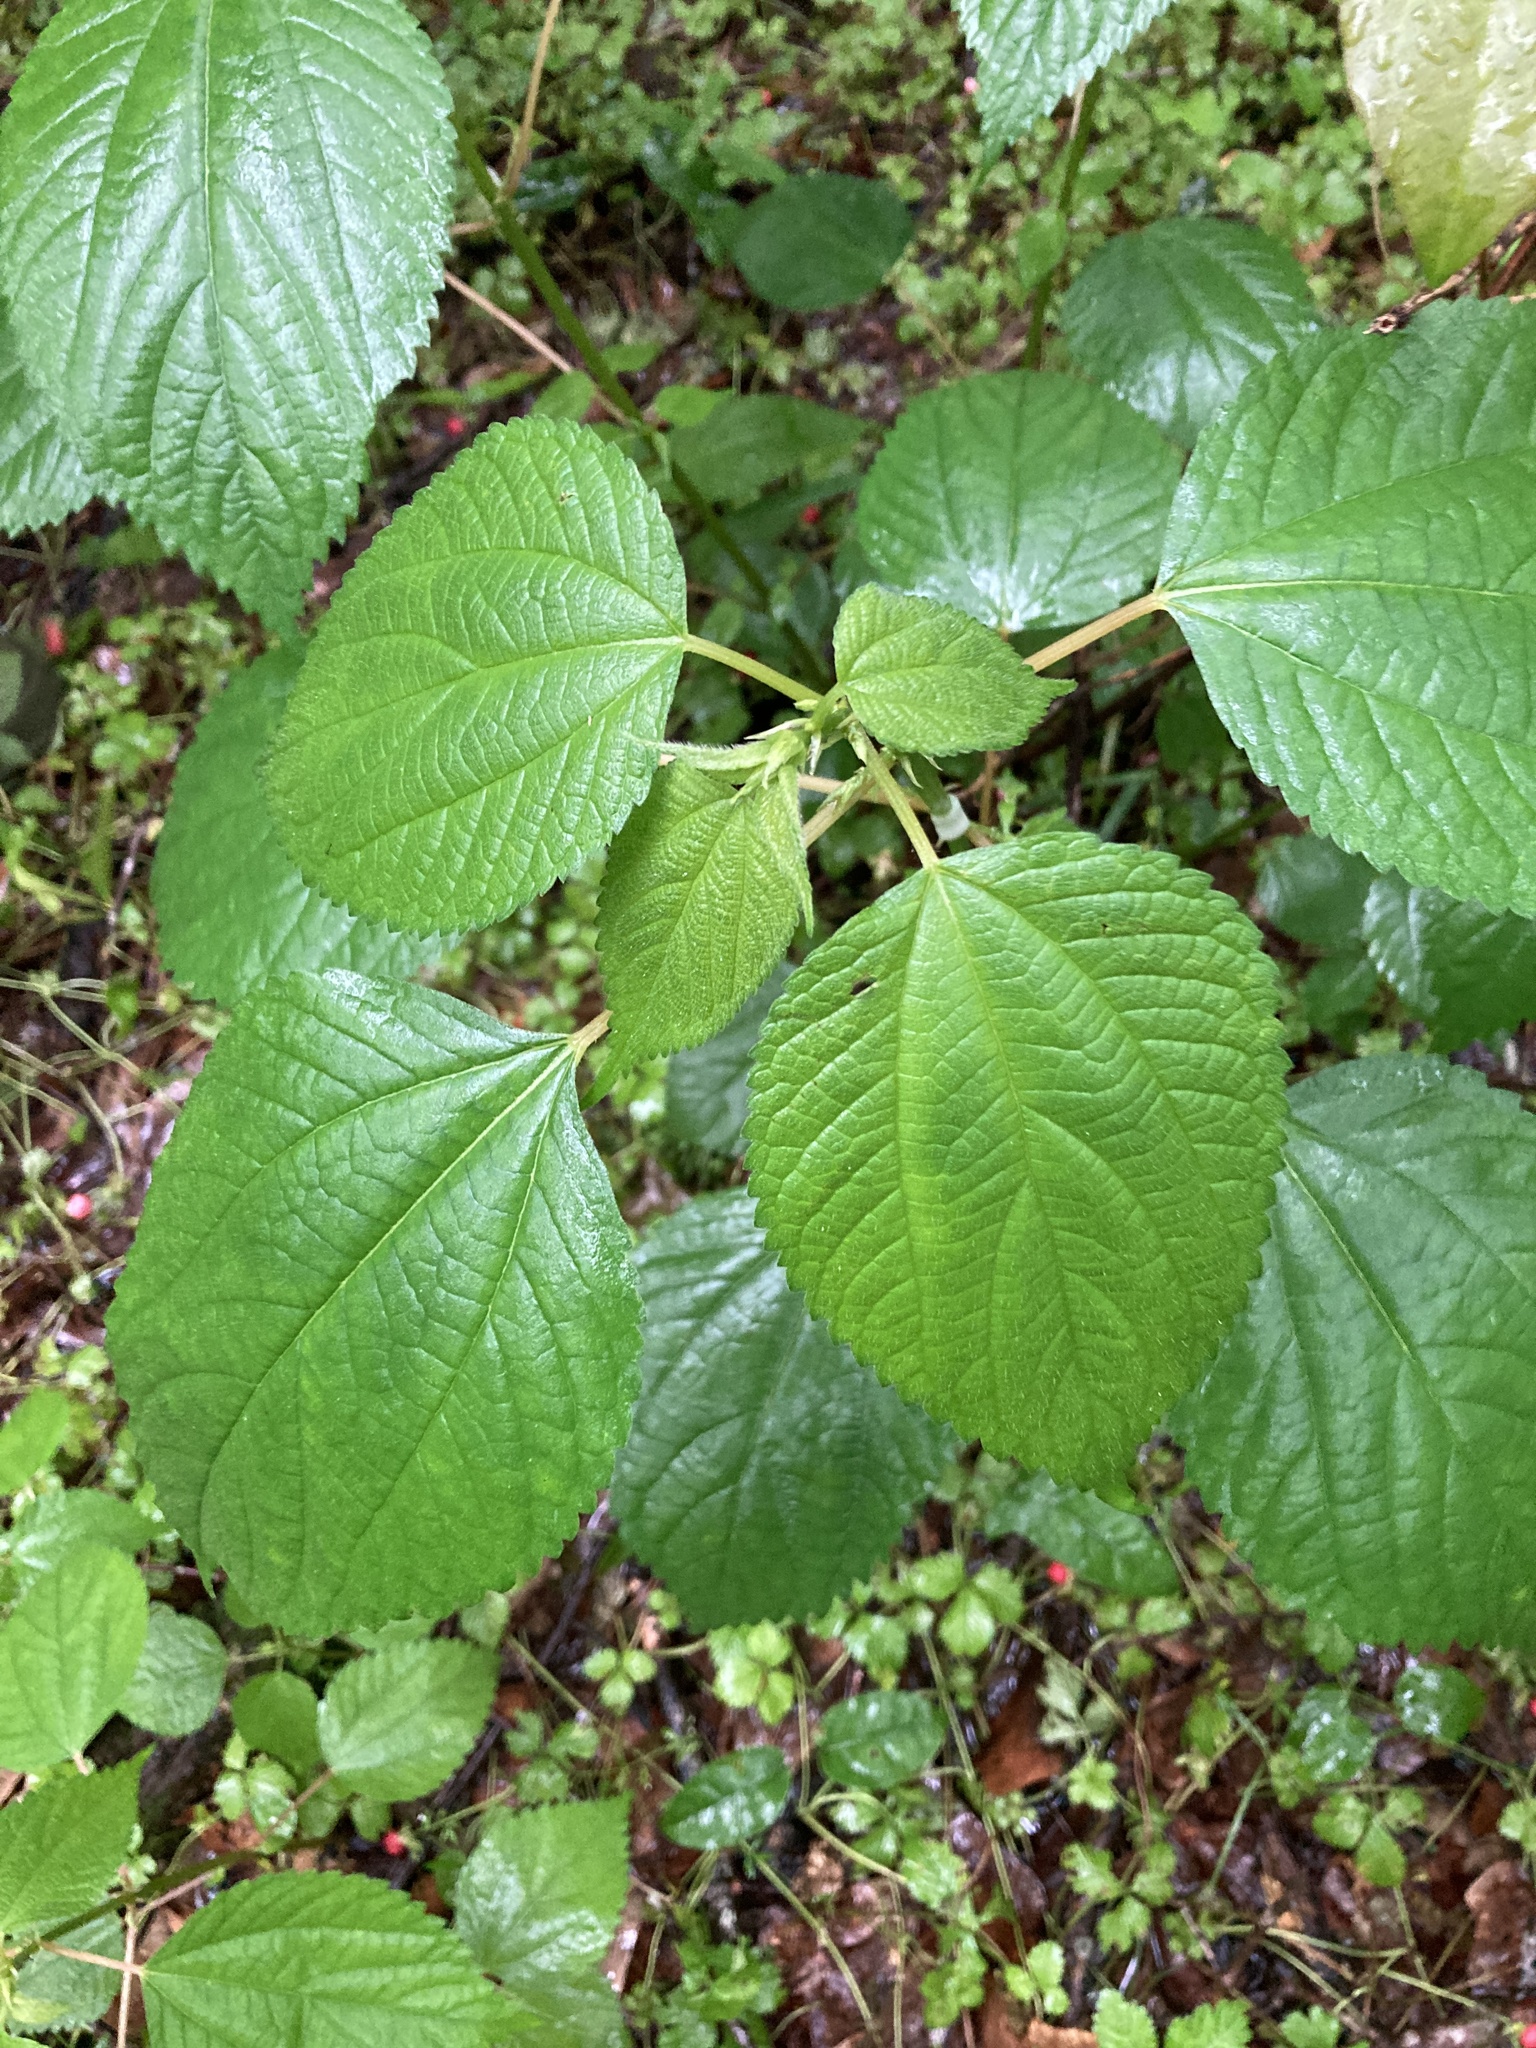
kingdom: Plantae
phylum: Tracheophyta
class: Magnoliopsida
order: Rosales
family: Urticaceae
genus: Boehmeria
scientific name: Boehmeria cylindrica
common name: Bog-hemp
